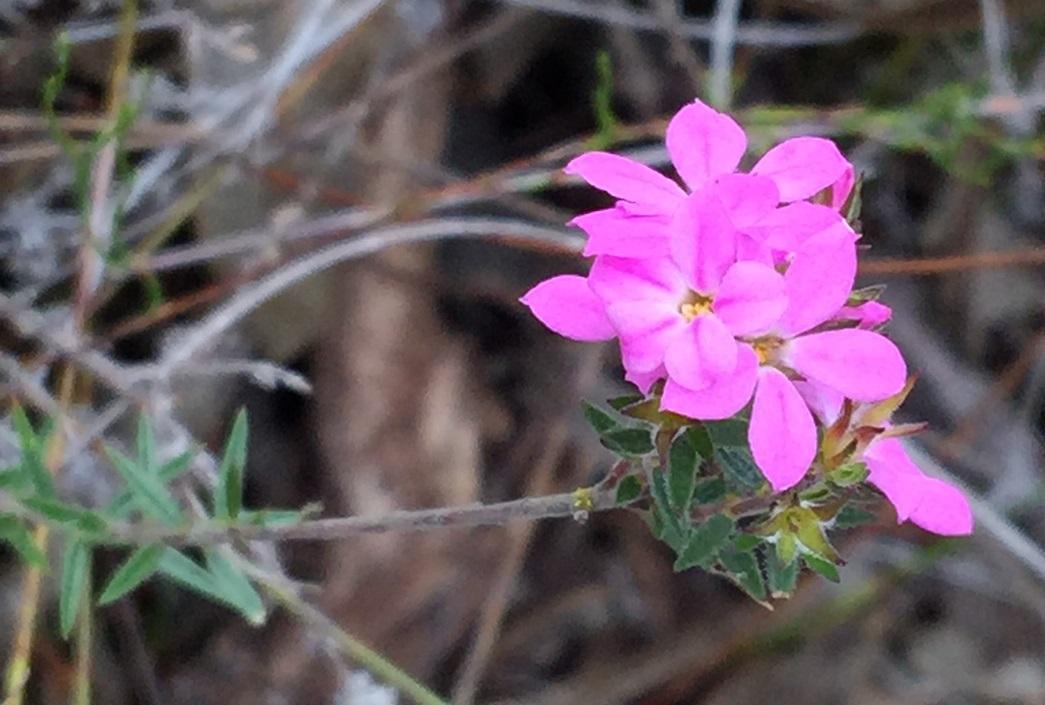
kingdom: Plantae
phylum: Tracheophyta
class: Magnoliopsida
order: Sapindales
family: Rutaceae
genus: Acmadenia
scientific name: Acmadenia gracilis
